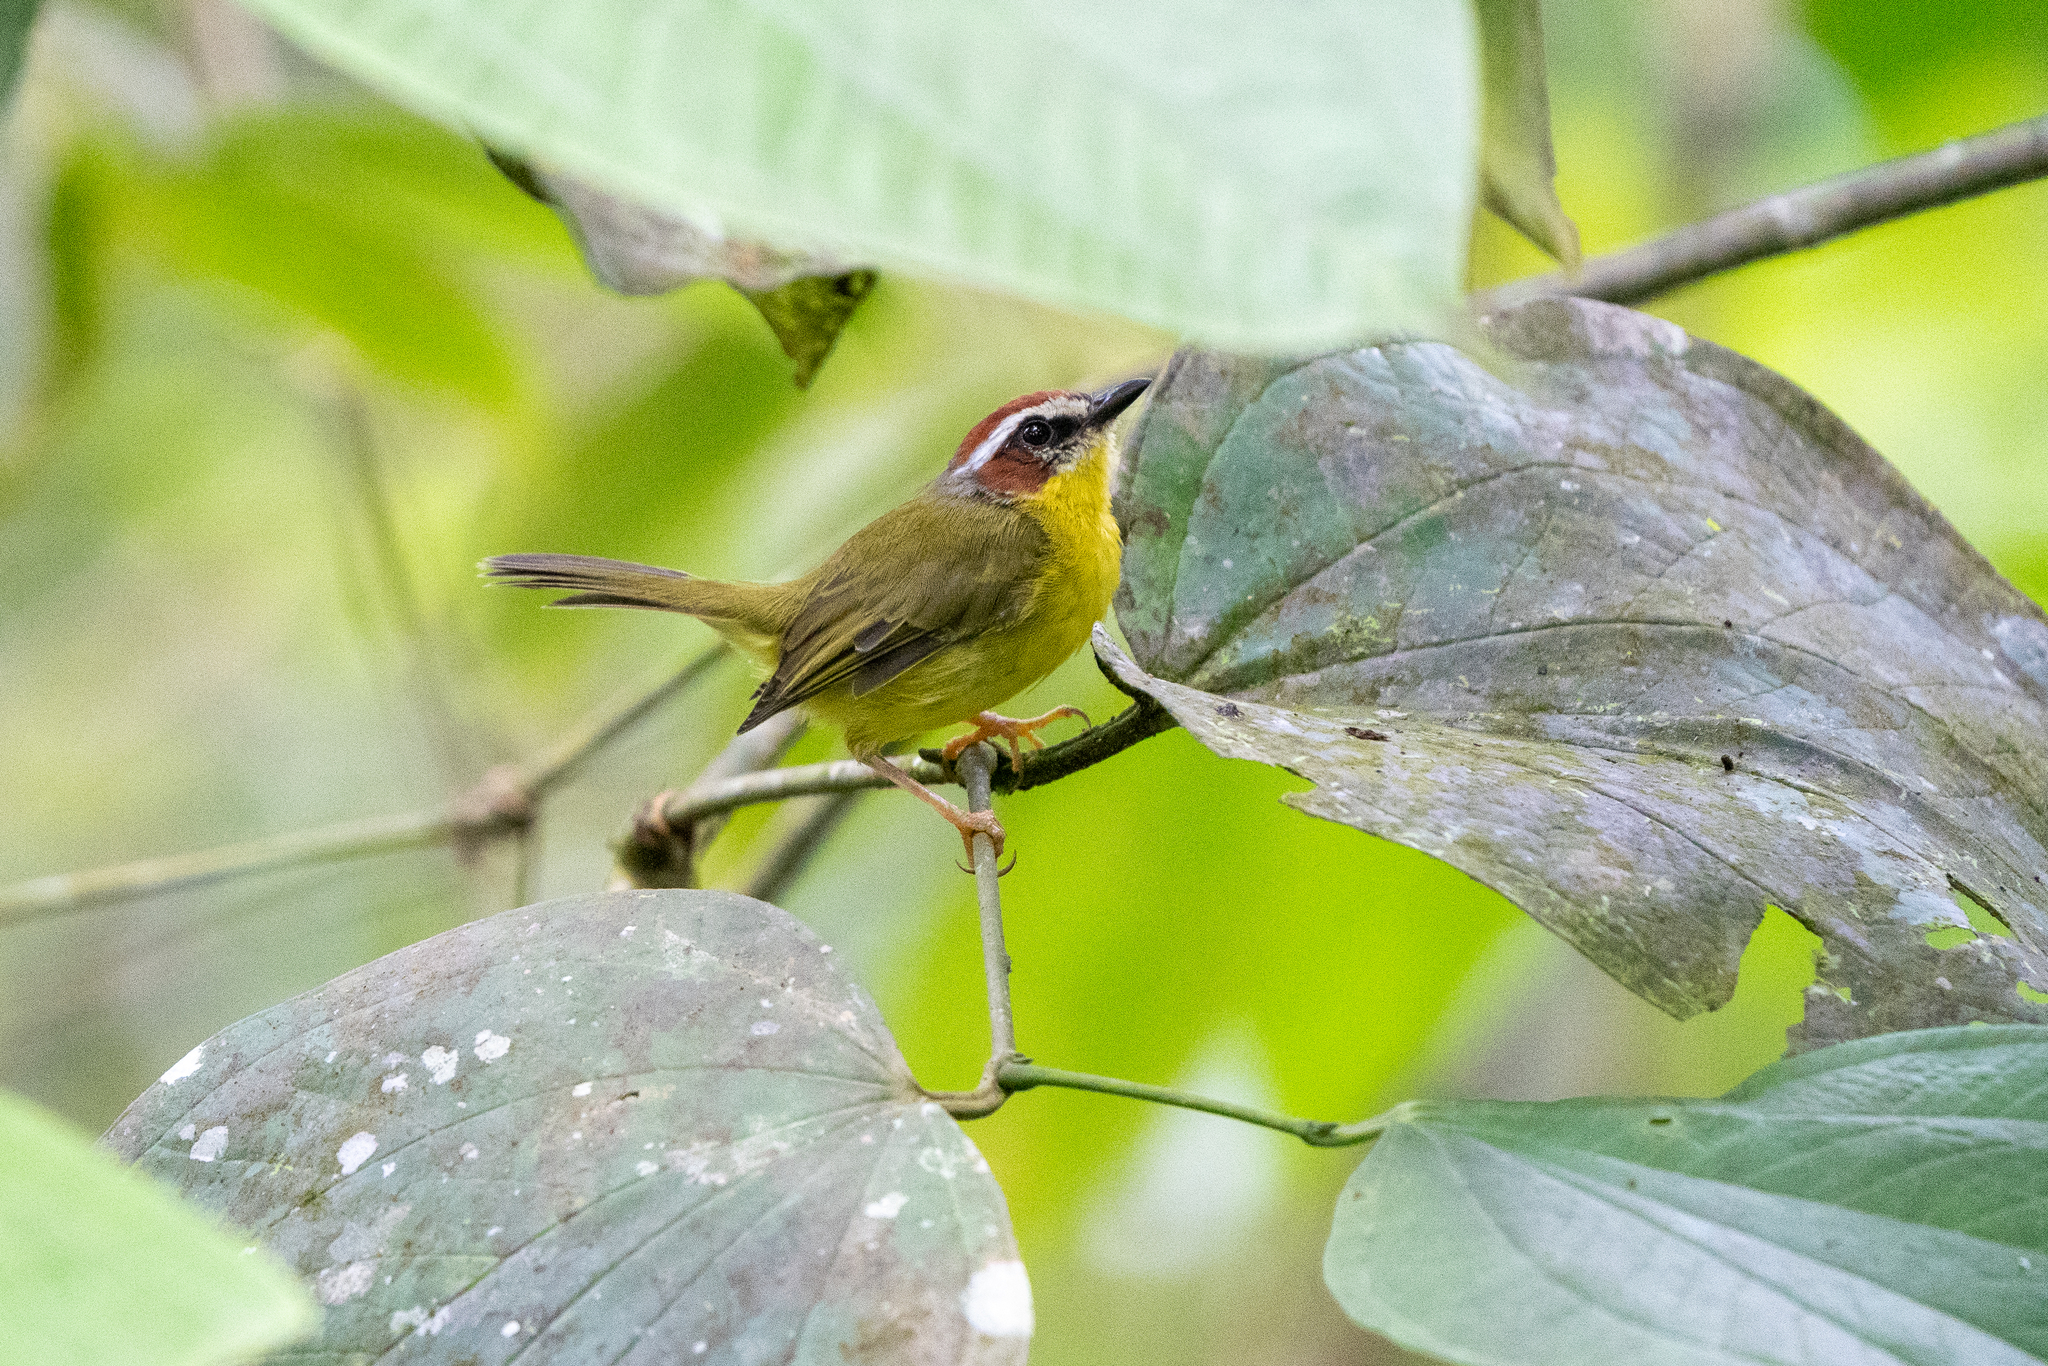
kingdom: Animalia
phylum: Chordata
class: Aves
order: Passeriformes
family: Parulidae
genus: Basileuterus
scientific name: Basileuterus rufifrons
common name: Rufous-capped warbler
